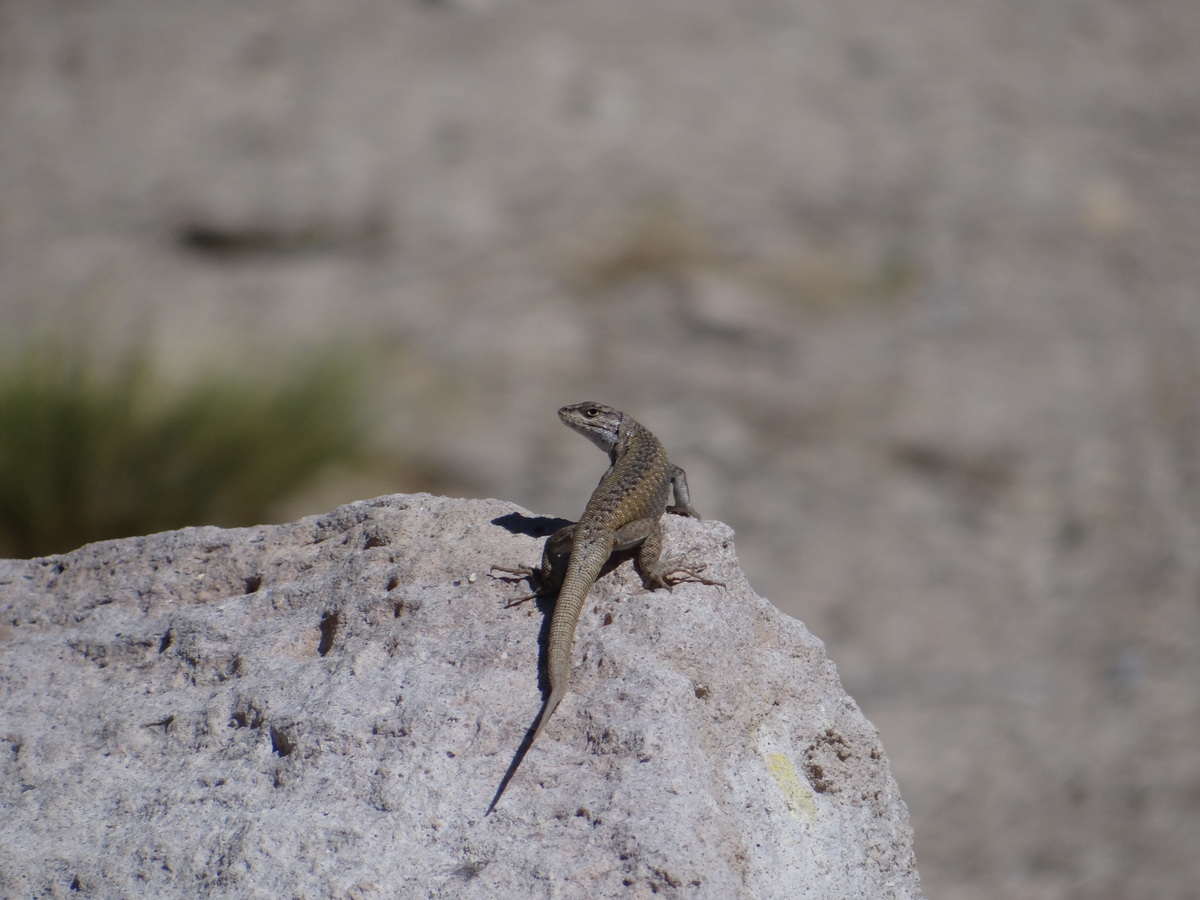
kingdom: Animalia
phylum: Chordata
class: Squamata
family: Liolaemidae
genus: Liolaemus
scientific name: Liolaemus smaug
